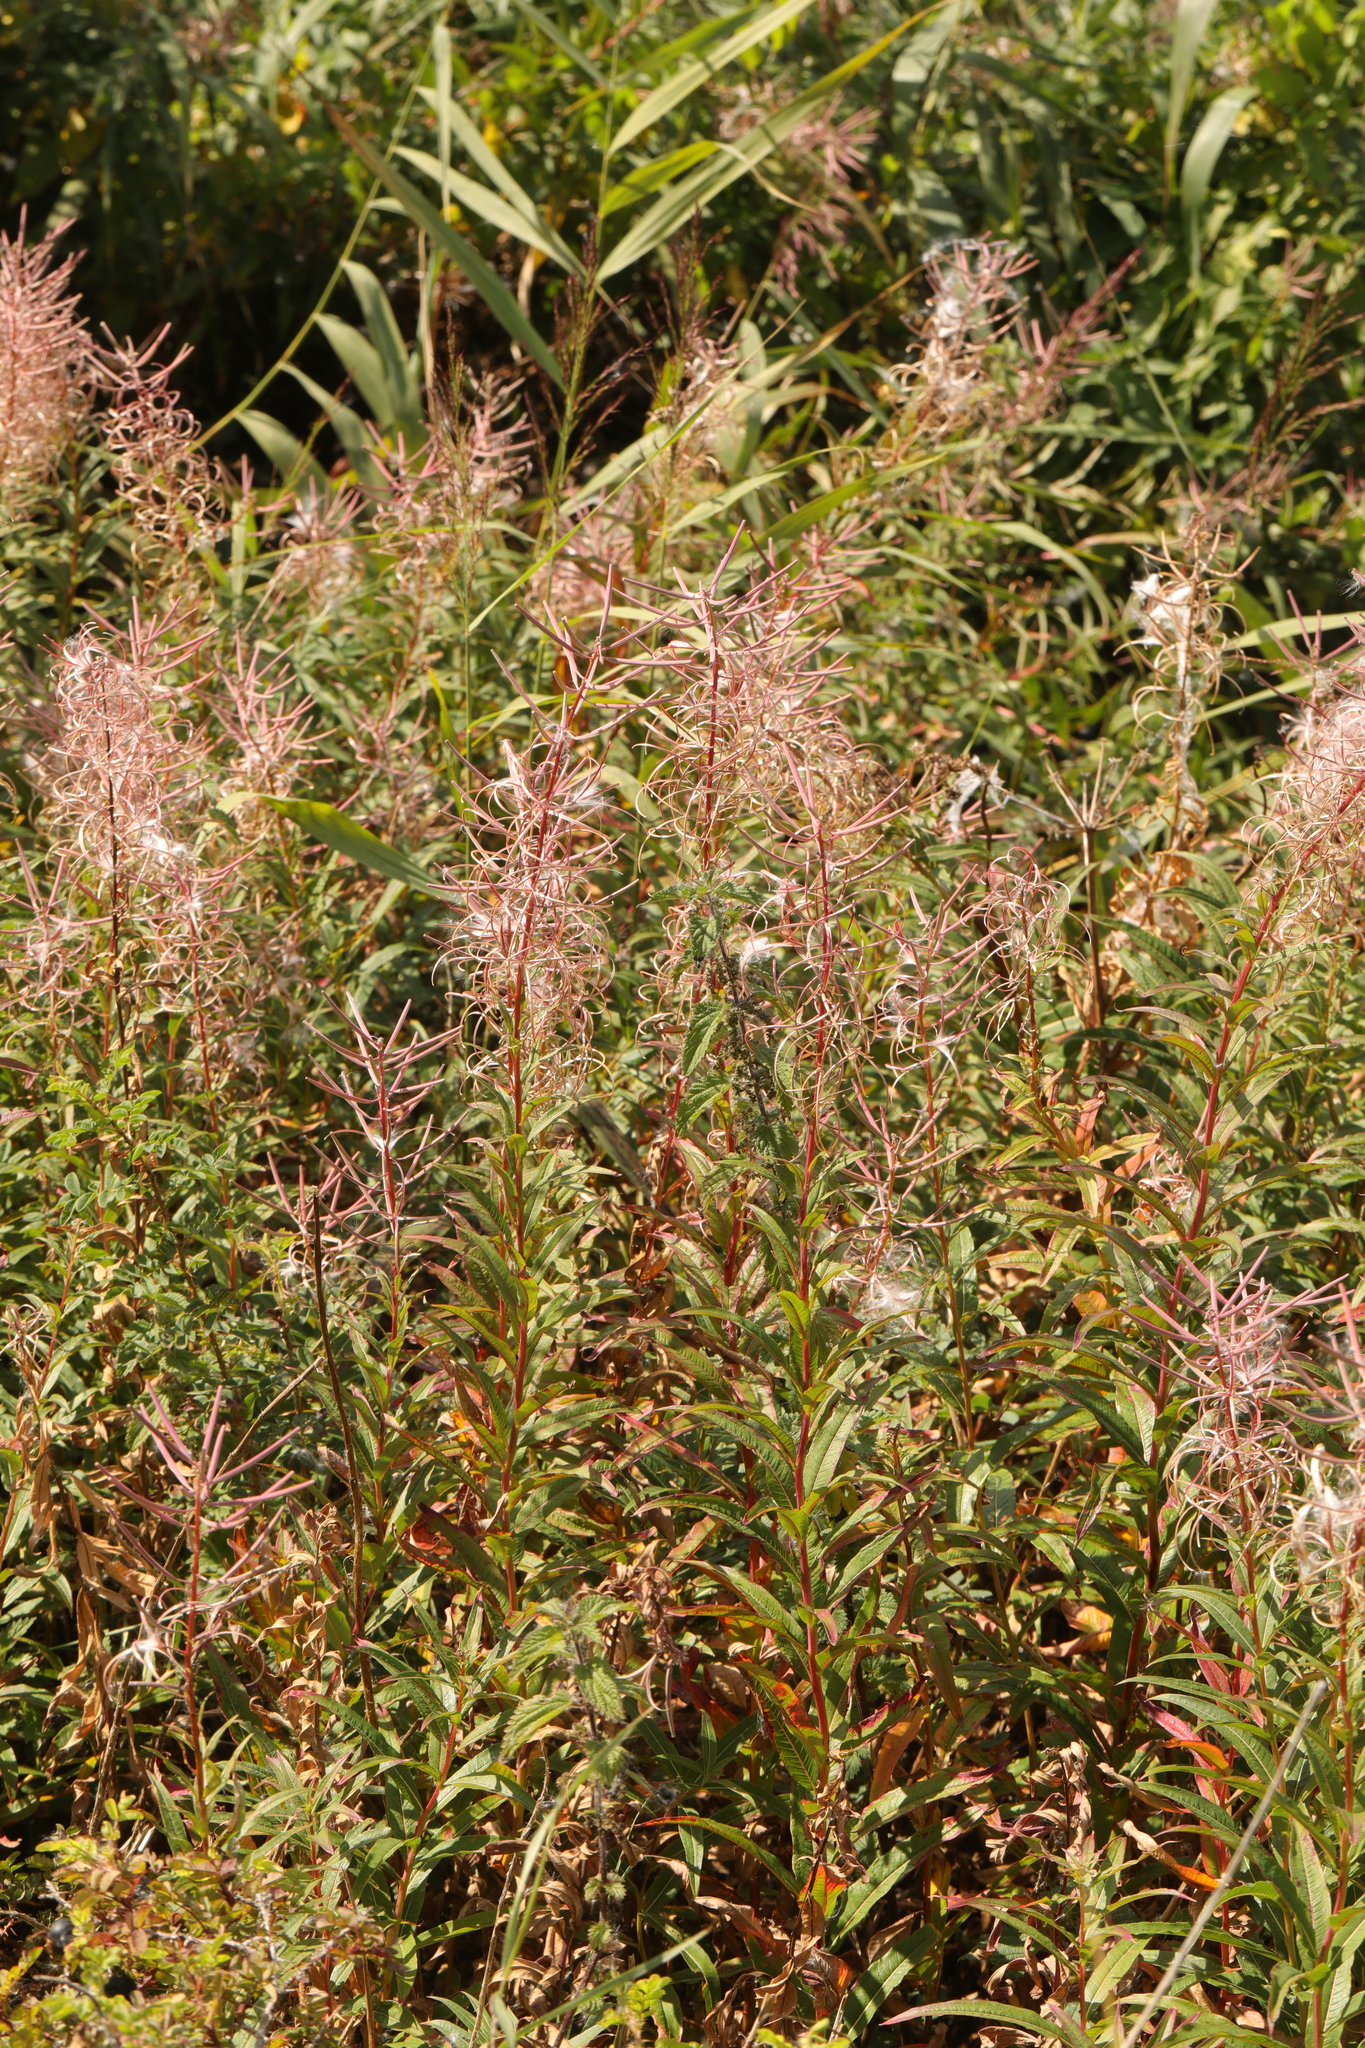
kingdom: Plantae
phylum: Tracheophyta
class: Magnoliopsida
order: Myrtales
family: Onagraceae
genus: Chamaenerion
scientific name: Chamaenerion angustifolium
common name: Fireweed
